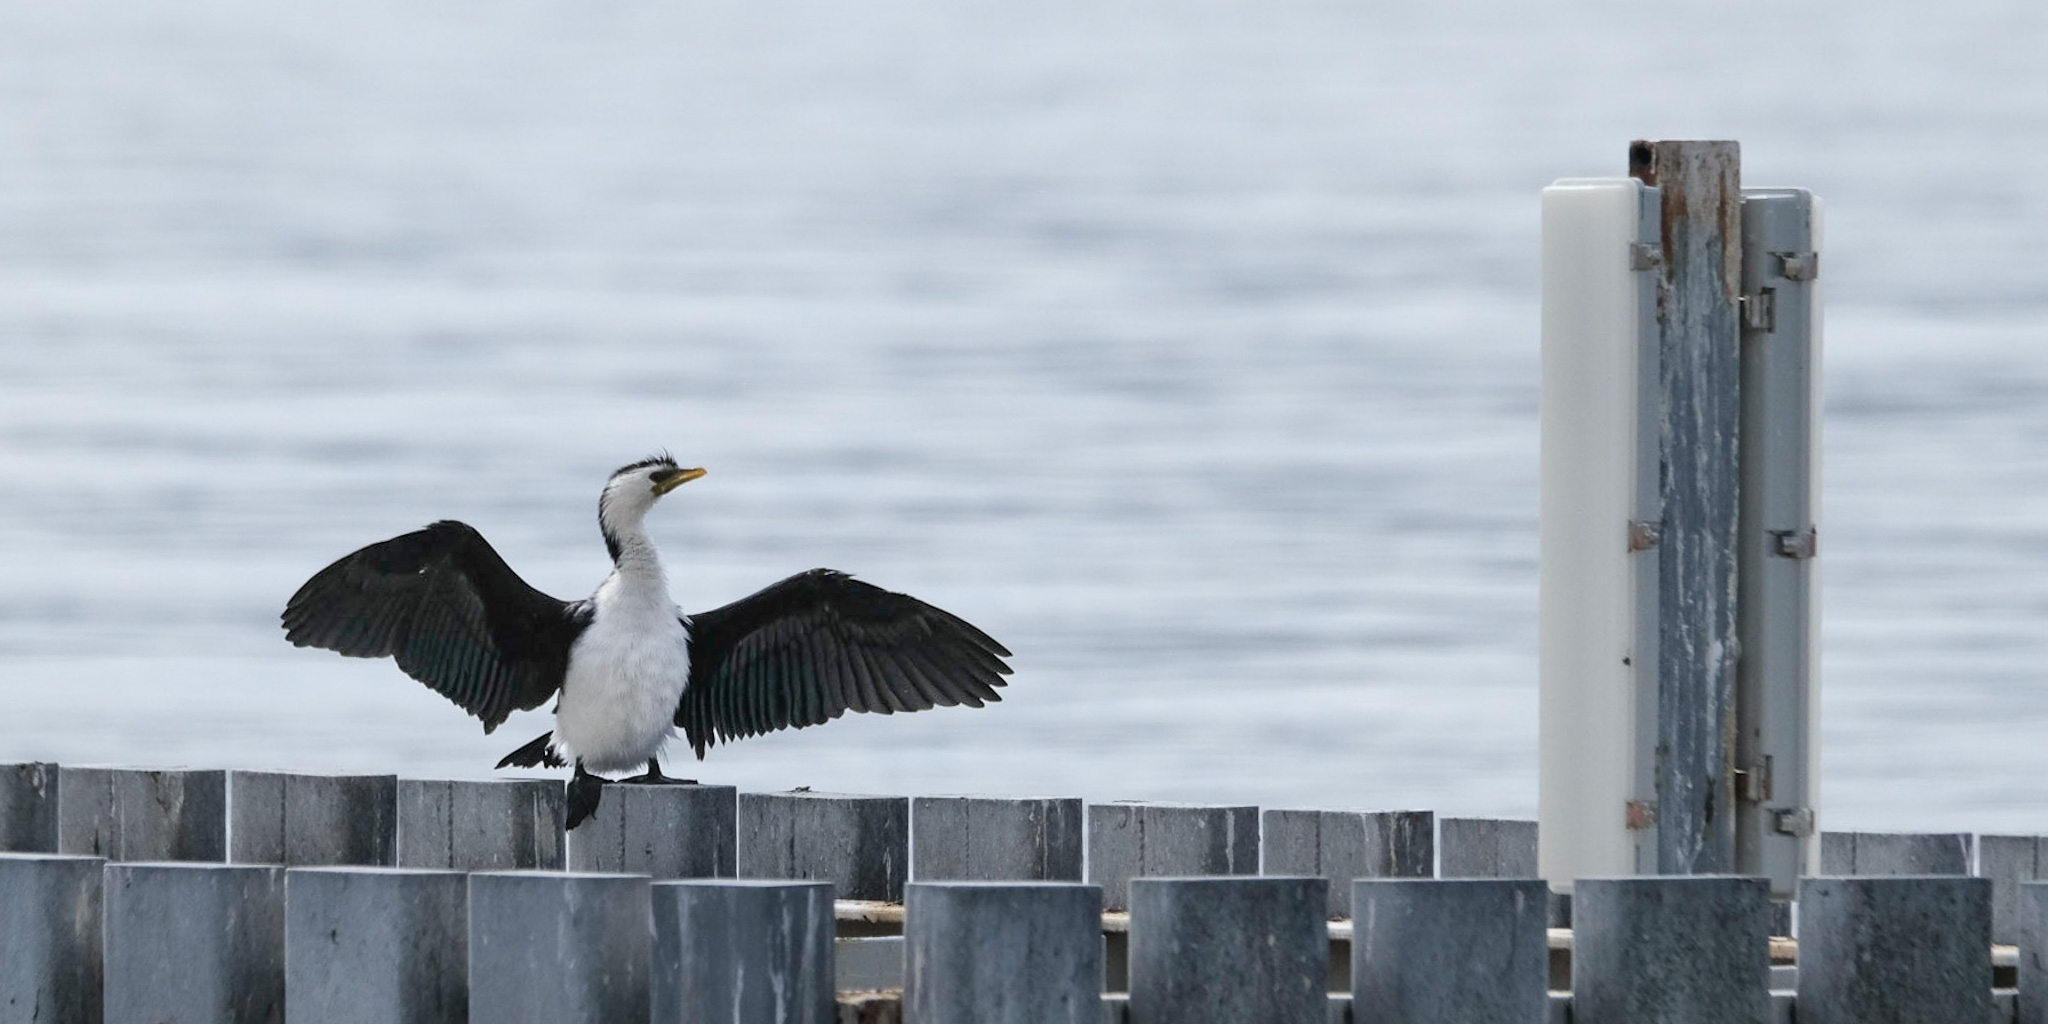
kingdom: Animalia
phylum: Chordata
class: Aves
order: Suliformes
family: Phalacrocoracidae
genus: Microcarbo
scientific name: Microcarbo melanoleucos
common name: Little pied cormorant
